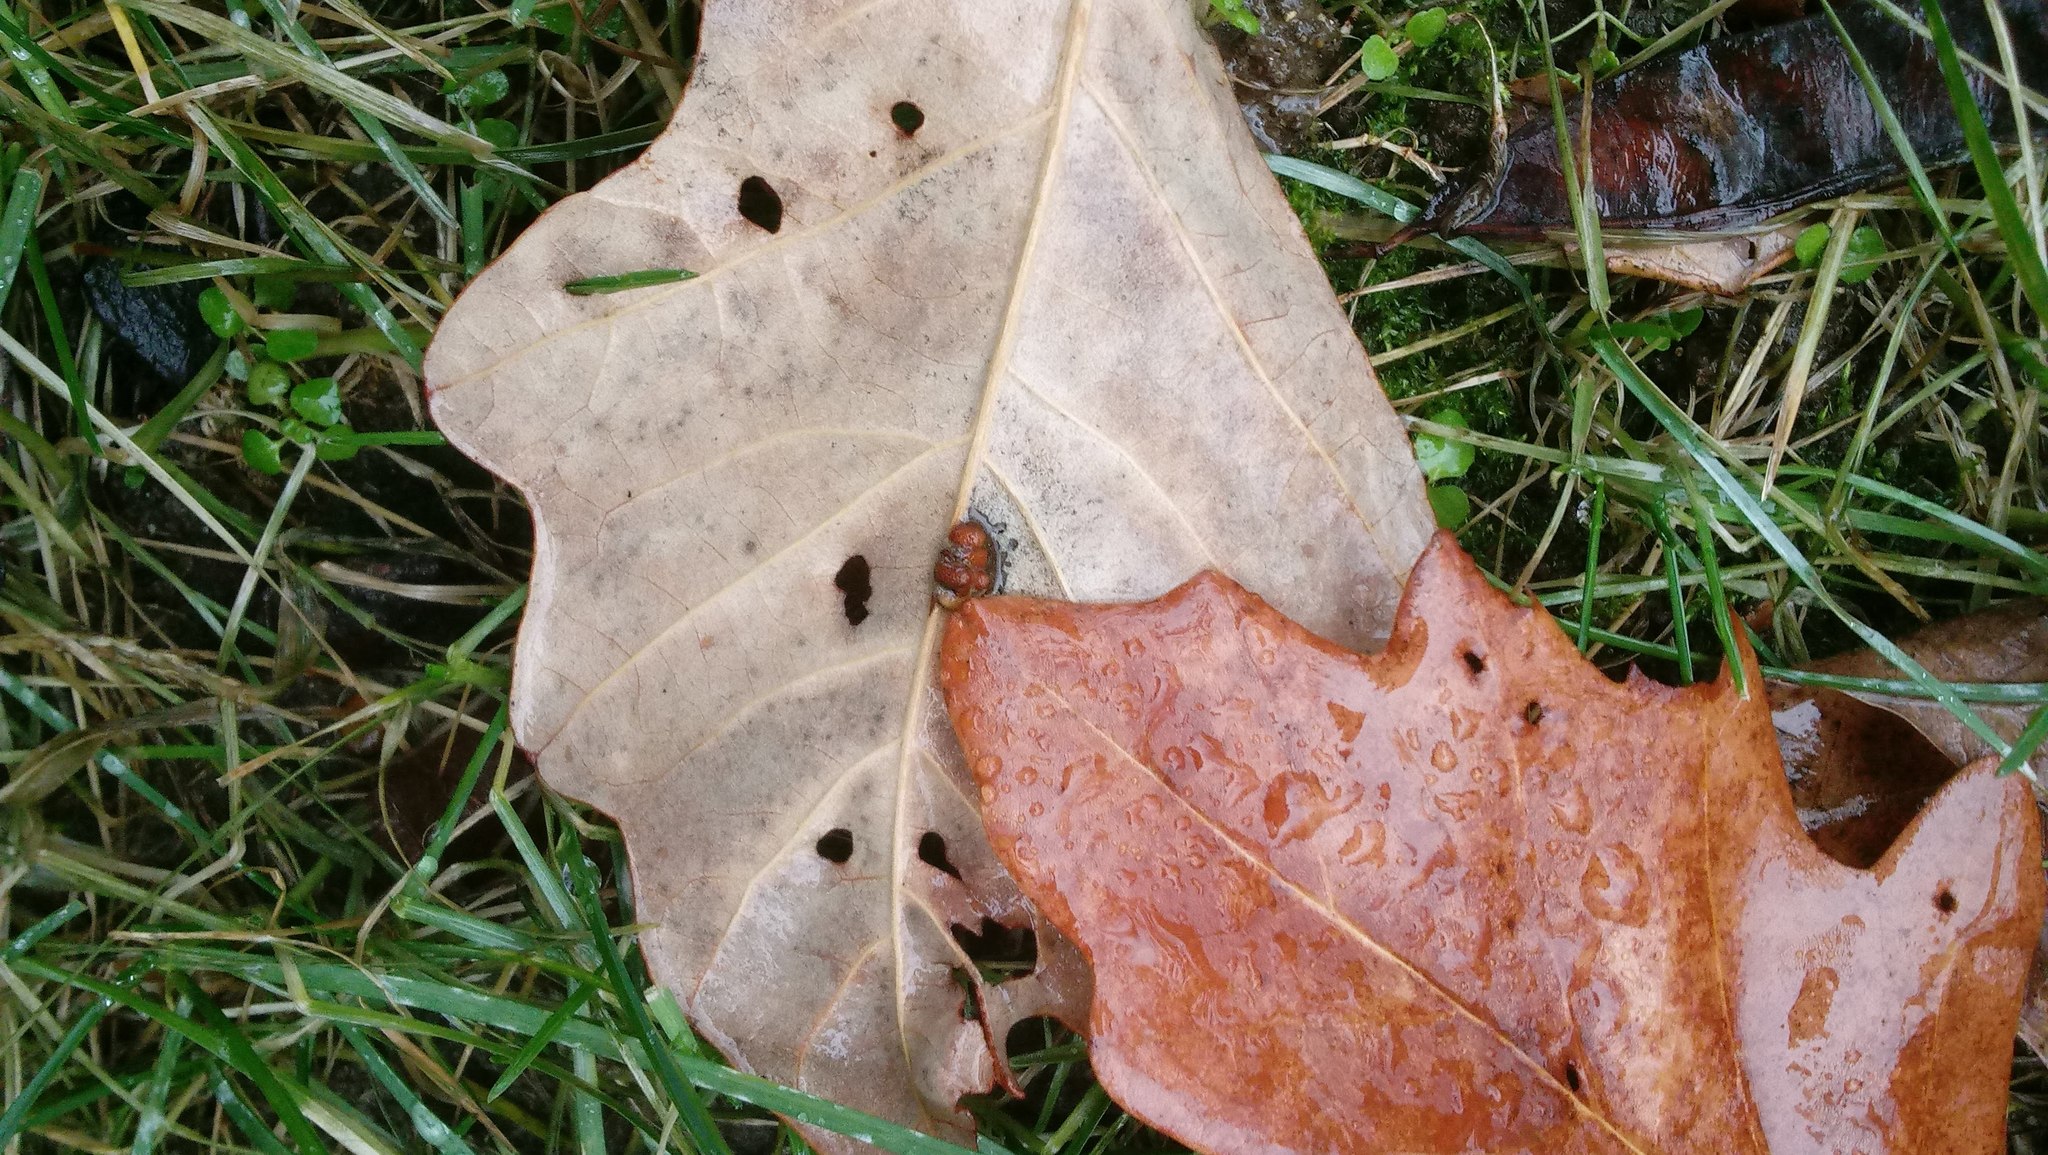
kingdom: Animalia
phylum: Arthropoda
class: Insecta
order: Hymenoptera
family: Cynipidae
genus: Andricus
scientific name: Andricus Druon ignotum
